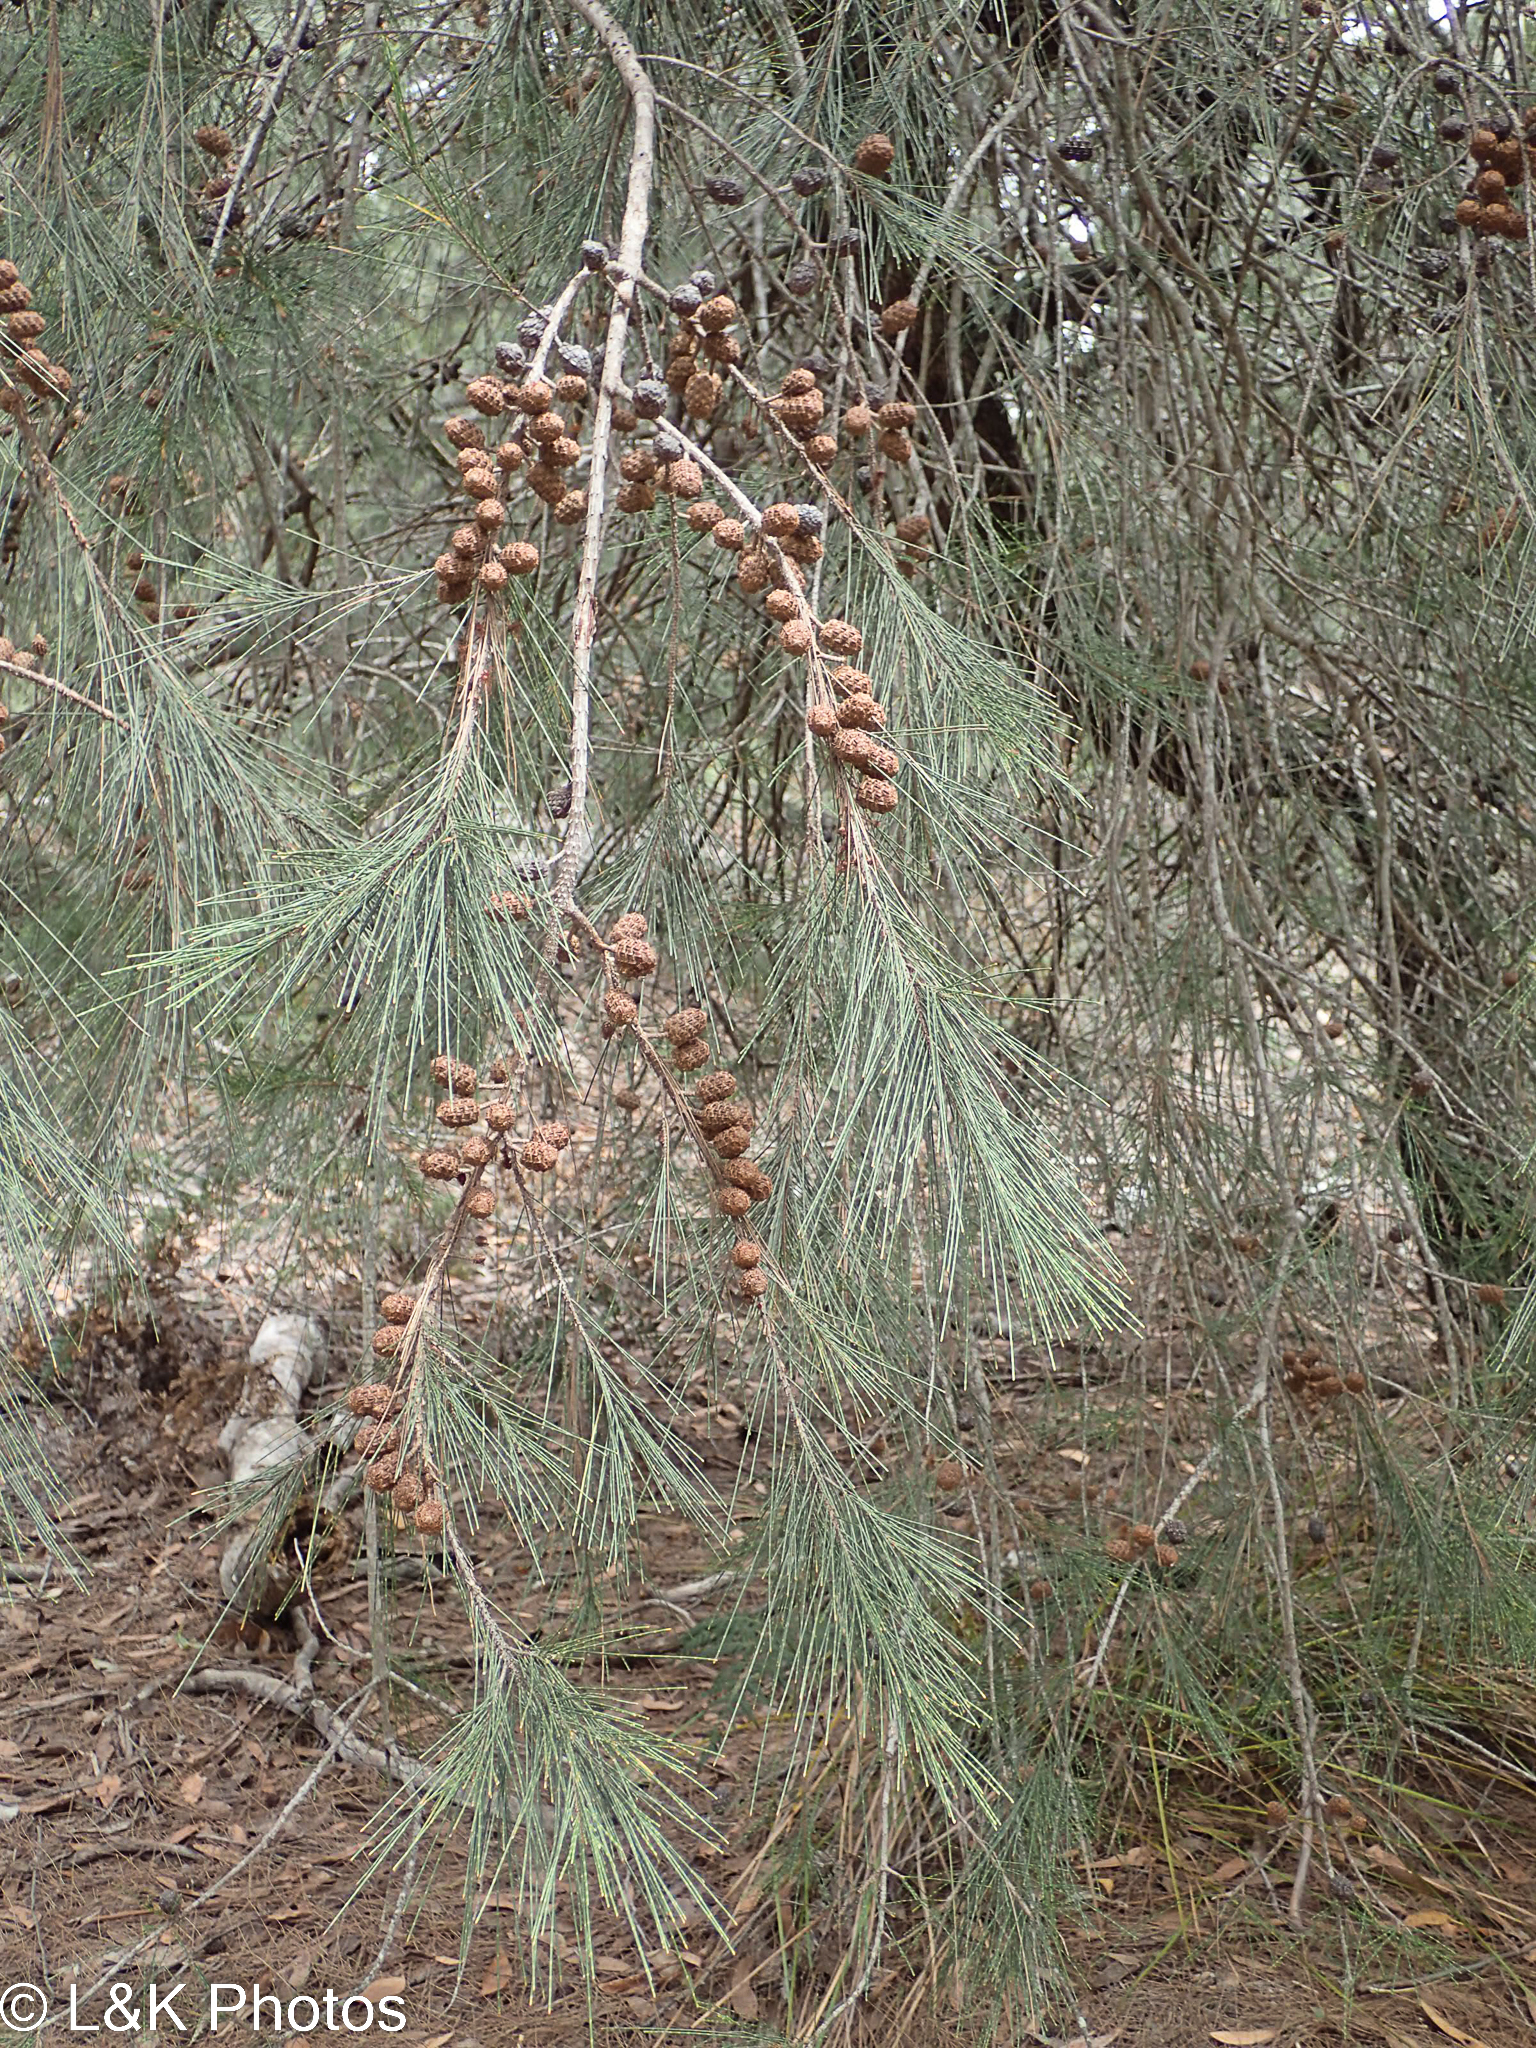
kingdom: Plantae
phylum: Tracheophyta
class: Magnoliopsida
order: Fagales
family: Casuarinaceae
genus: Allocasuarina
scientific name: Allocasuarina littoralis
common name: Black she-oak
